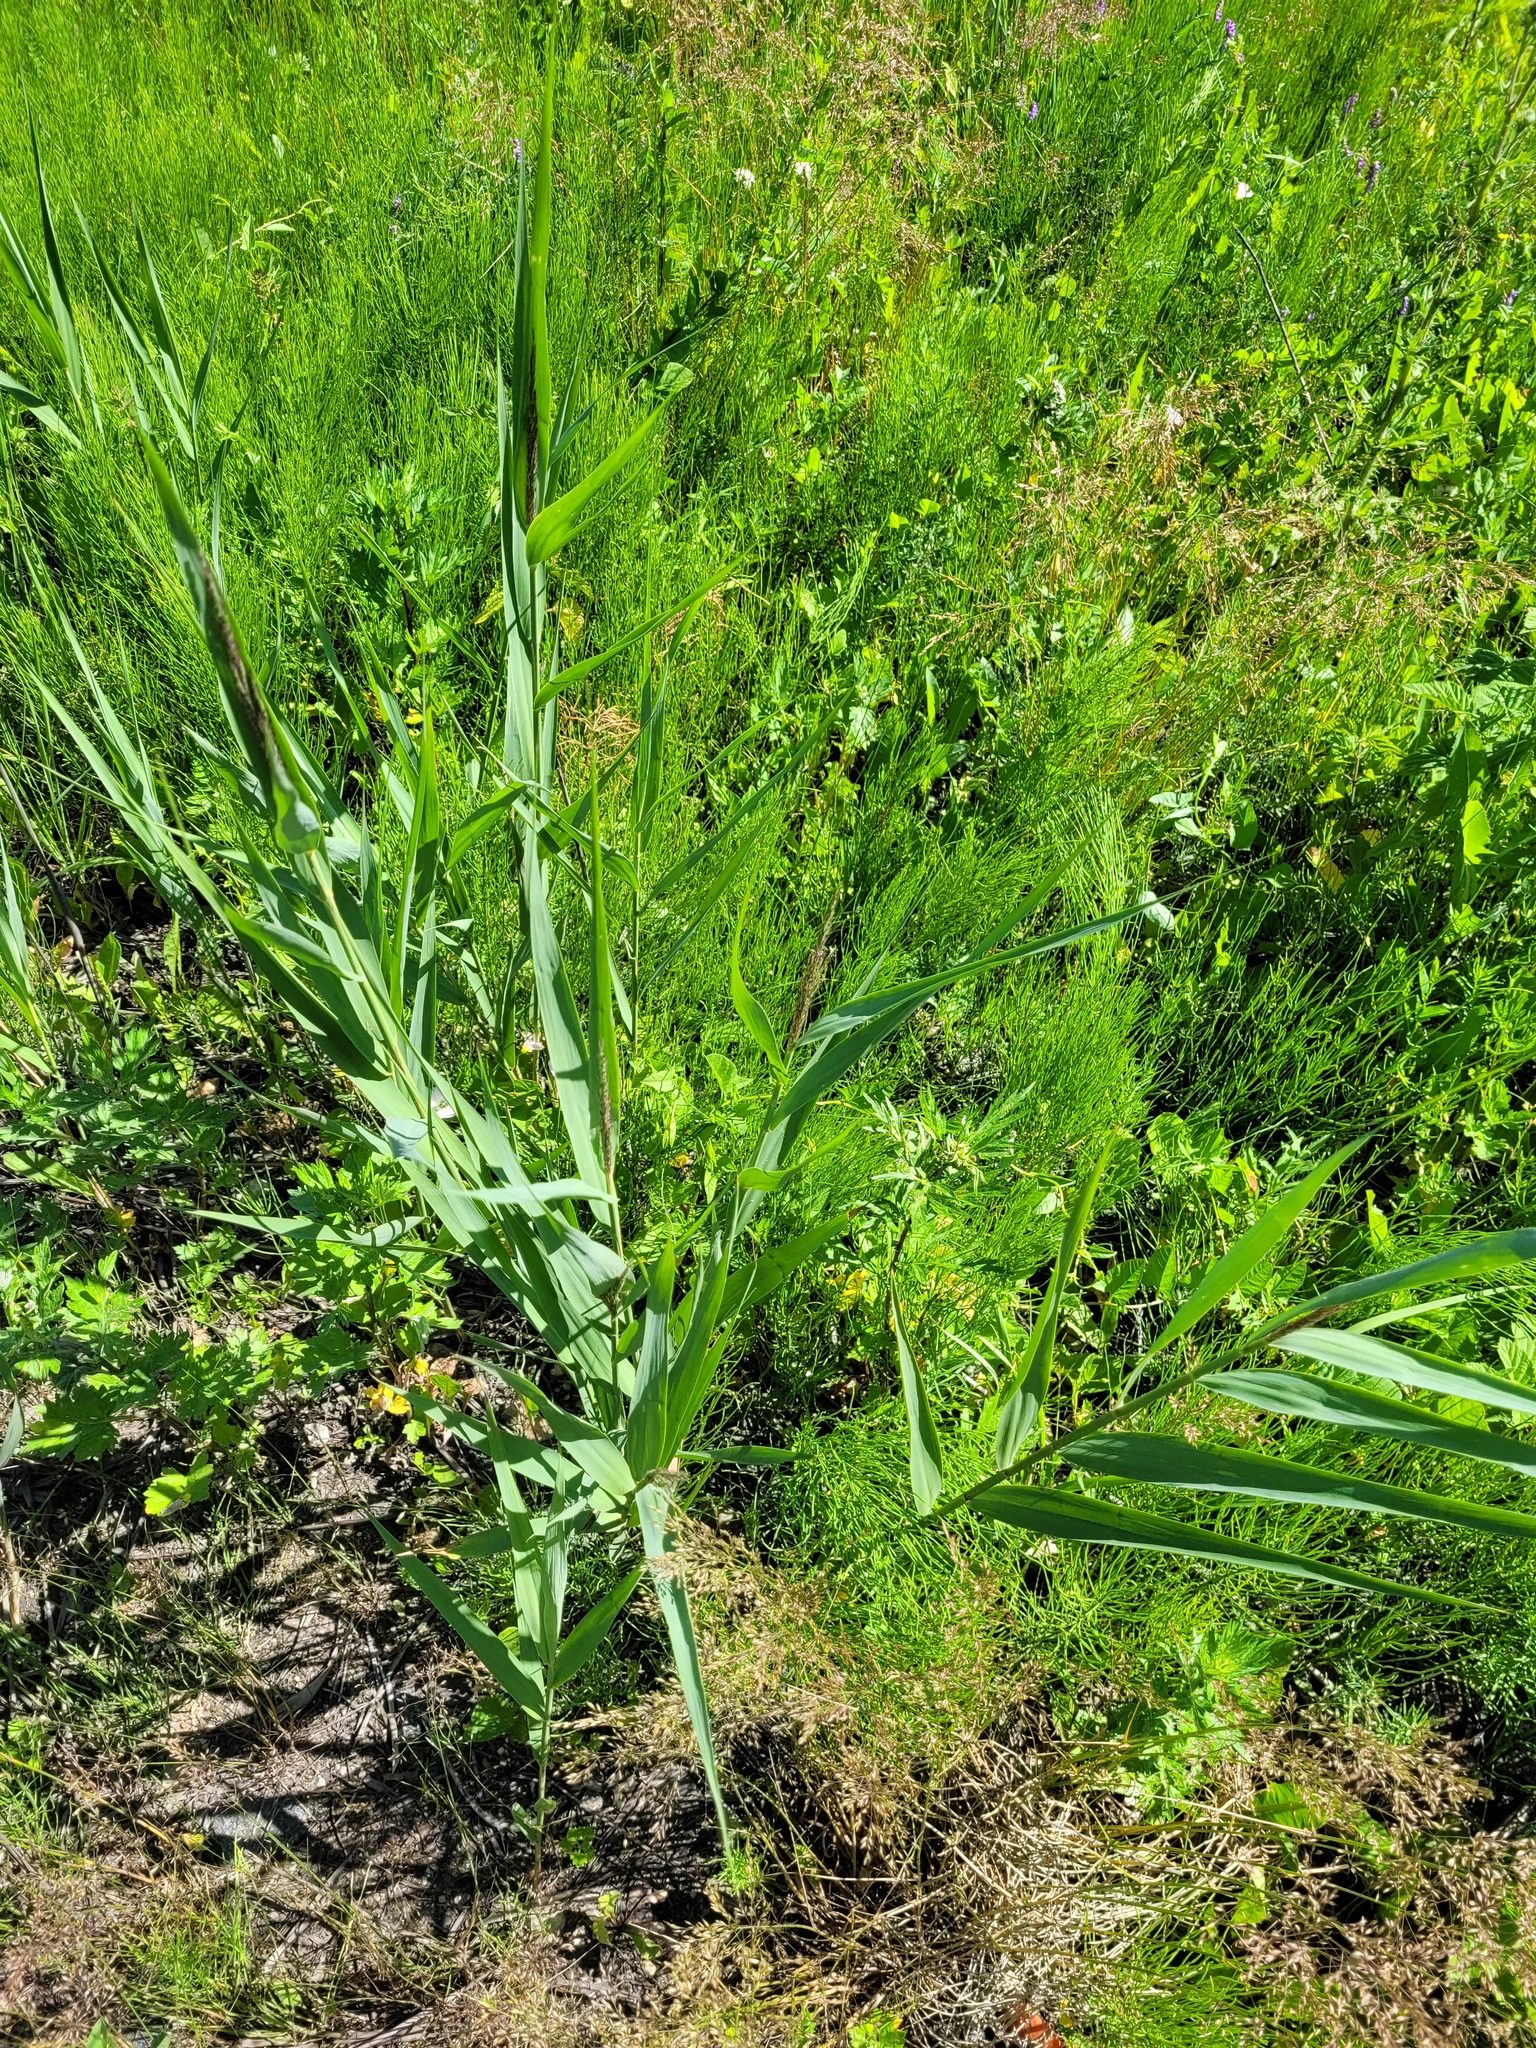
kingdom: Plantae
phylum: Tracheophyta
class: Liliopsida
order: Poales
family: Poaceae
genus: Phragmites
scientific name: Phragmites australis
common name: Common reed
